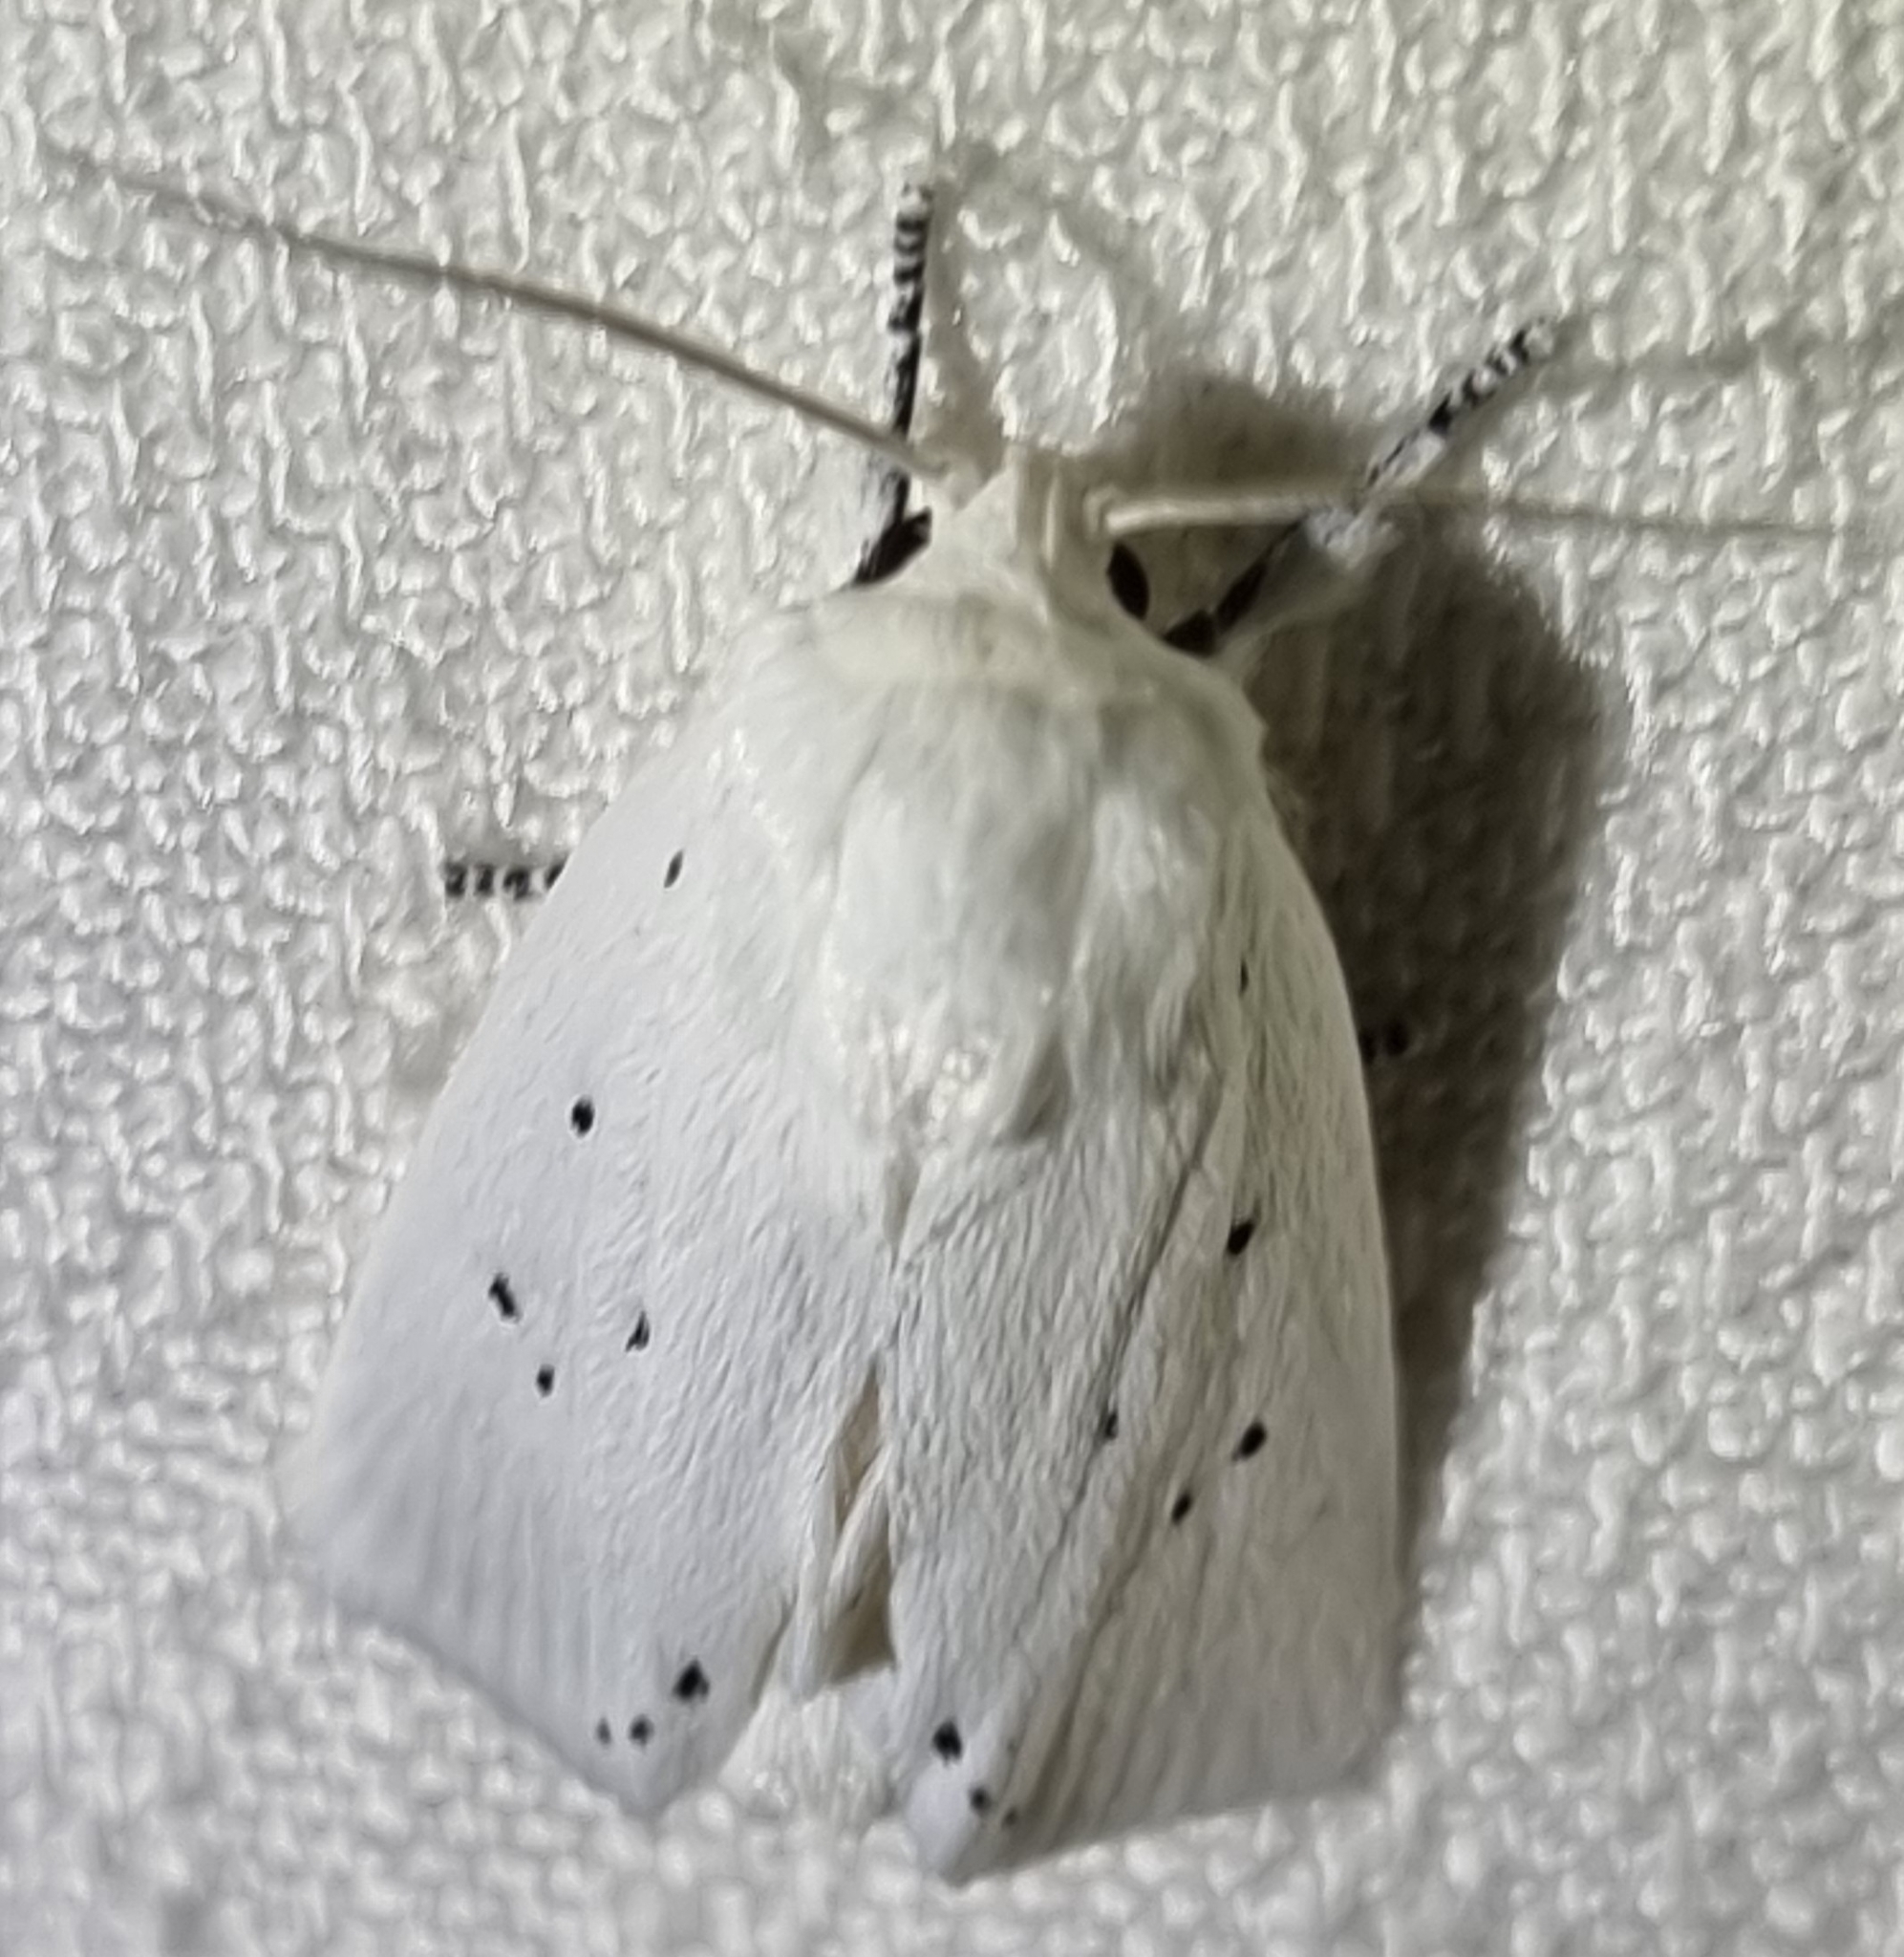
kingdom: Animalia
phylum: Arthropoda
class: Insecta
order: Lepidoptera
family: Xyloryctidae
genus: Cryptophasa
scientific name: Cryptophasa pultenae
